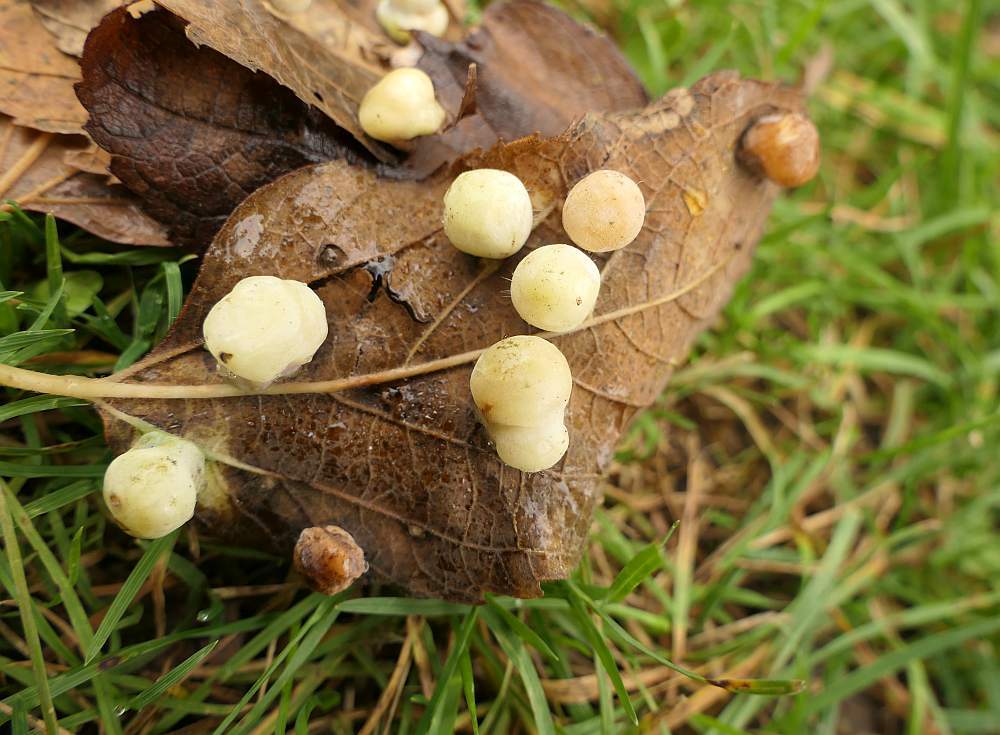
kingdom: Animalia
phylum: Arthropoda
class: Insecta
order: Hemiptera
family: Aphalaridae
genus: Pachypsylla
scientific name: Pachypsylla celtidismamma
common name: Hackberry nipplegall psyllid
